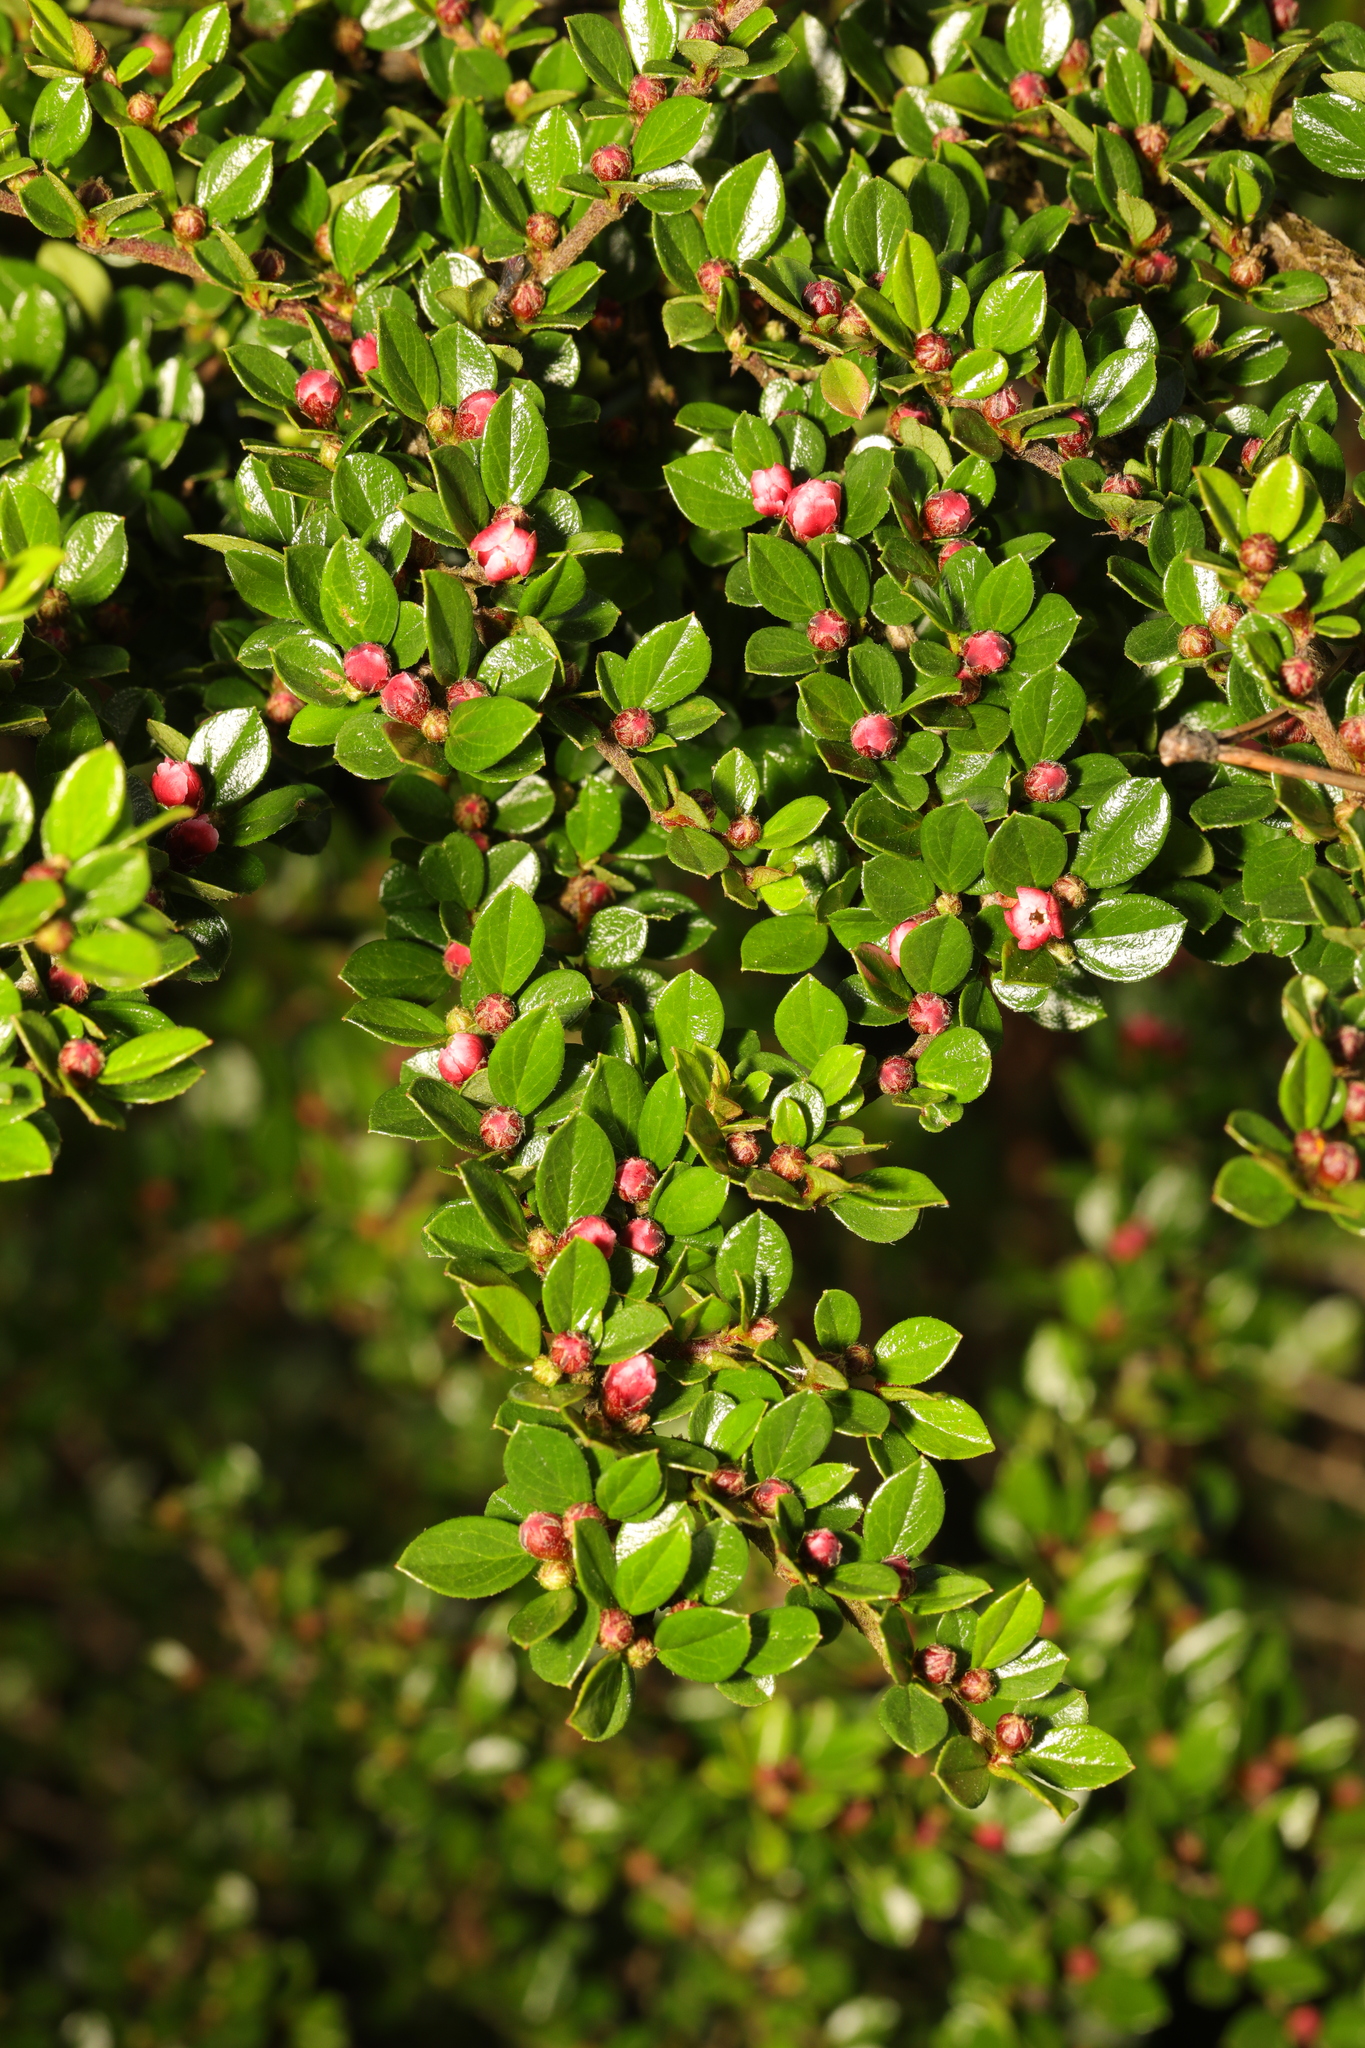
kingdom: Plantae
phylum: Tracheophyta
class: Magnoliopsida
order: Rosales
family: Rosaceae
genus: Cotoneaster
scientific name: Cotoneaster horizontalis
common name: Wall cotoneaster
